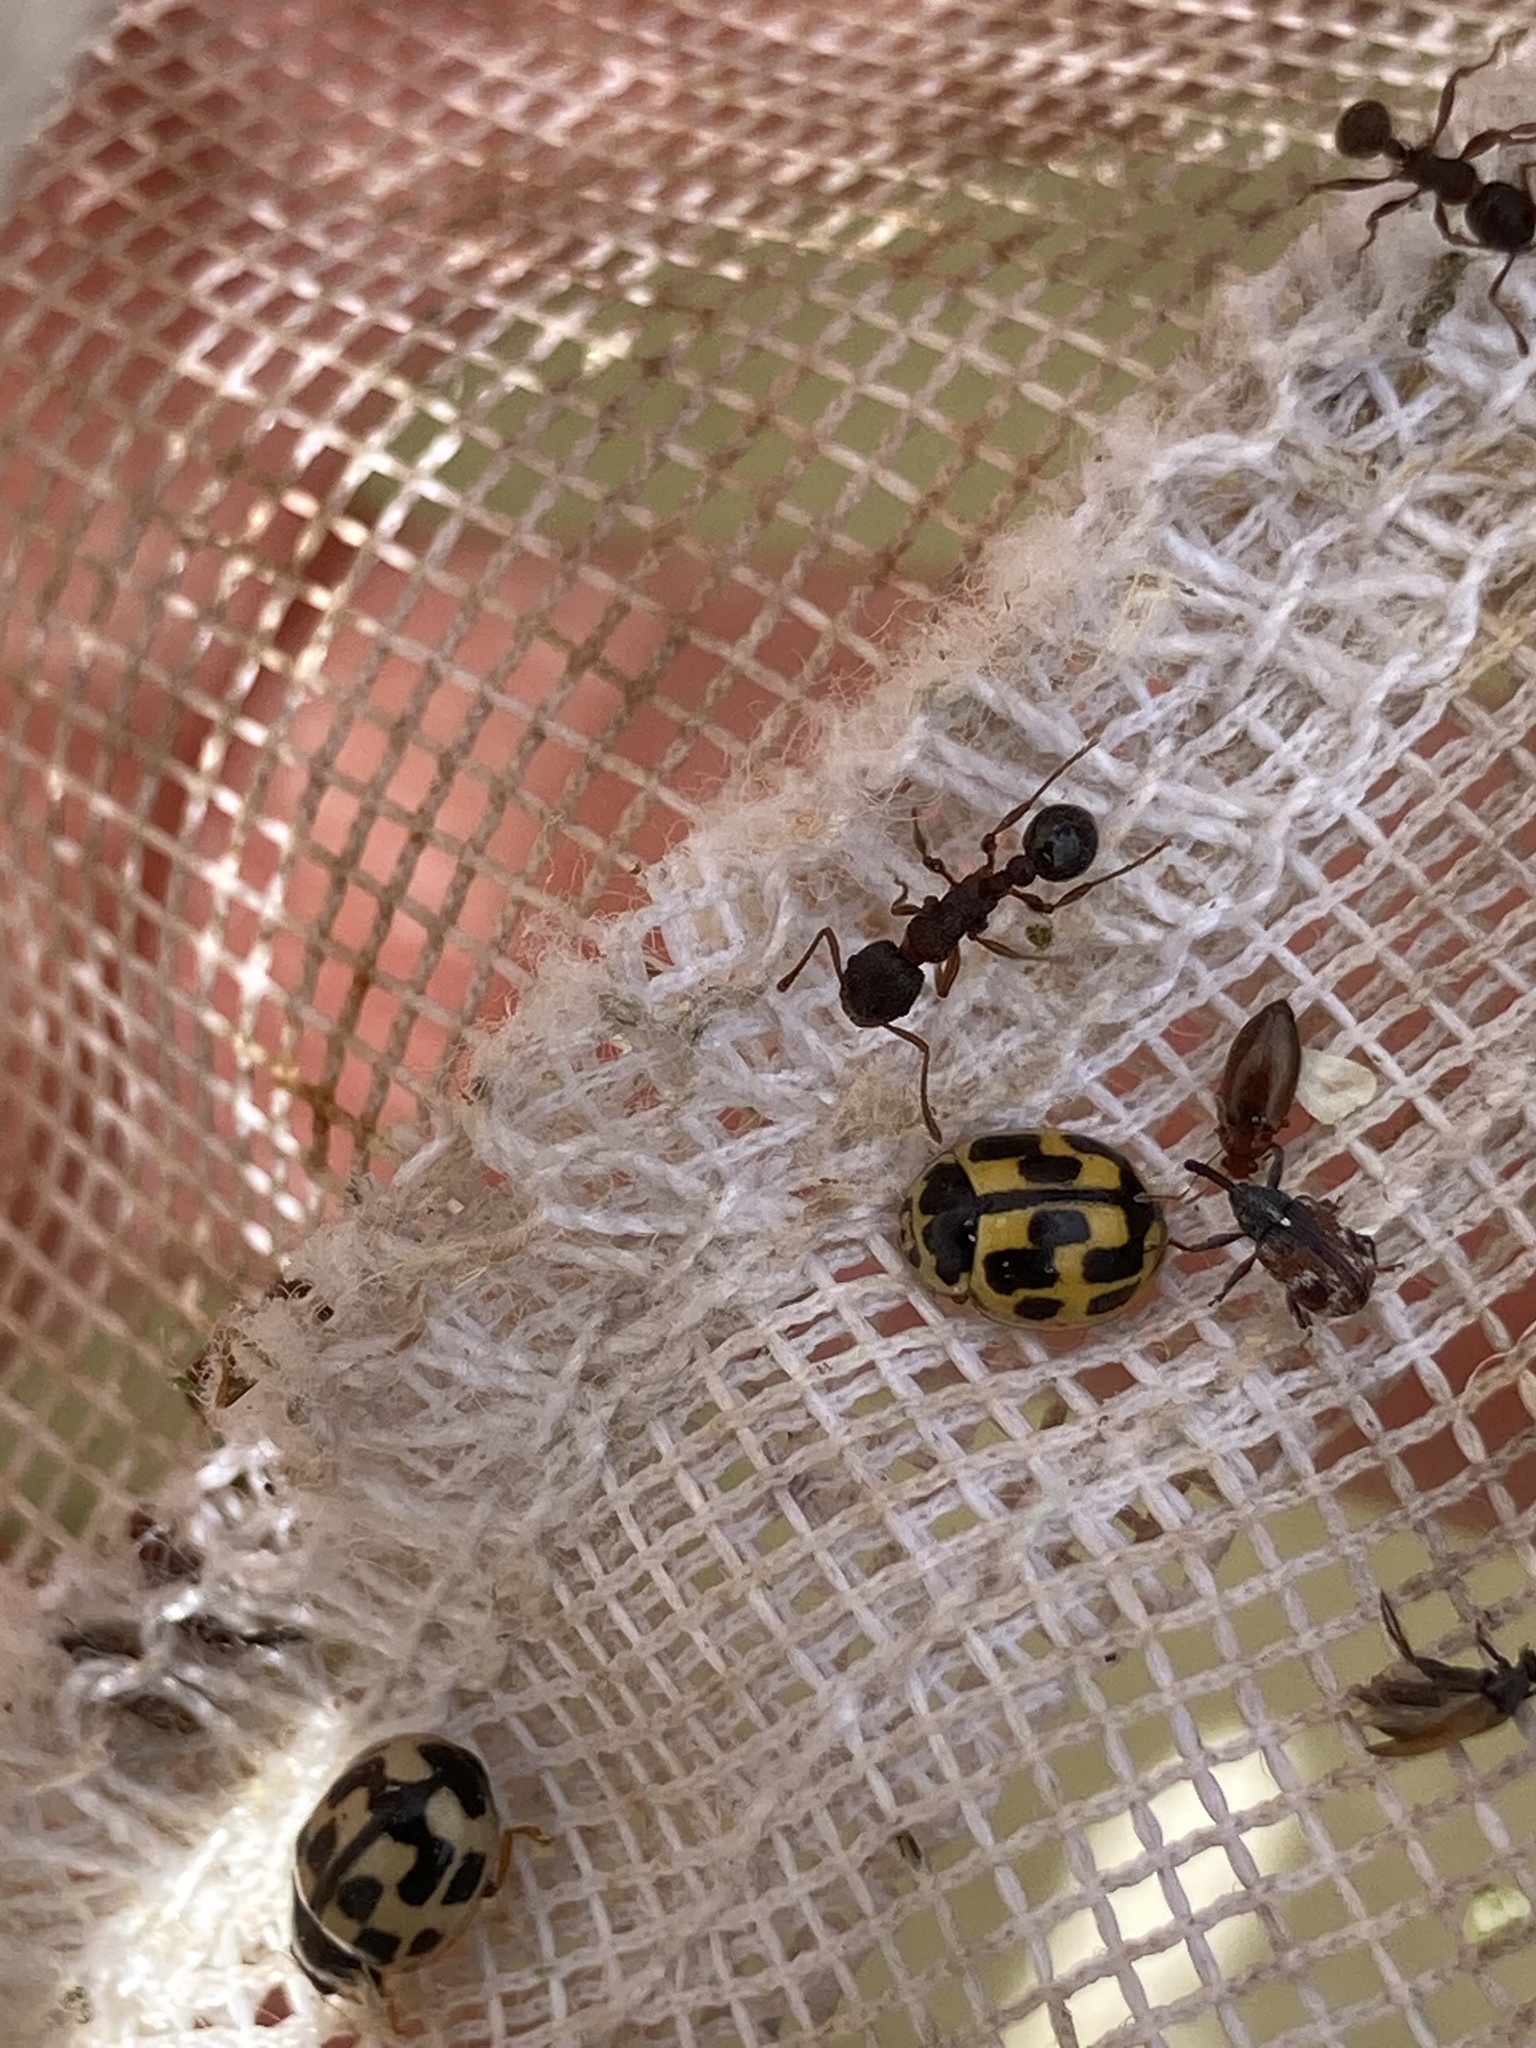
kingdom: Animalia
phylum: Arthropoda
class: Insecta
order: Coleoptera
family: Coccinellidae
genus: Propylaea
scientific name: Propylaea quatuordecimpunctata
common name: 14-spotted ladybird beetle
